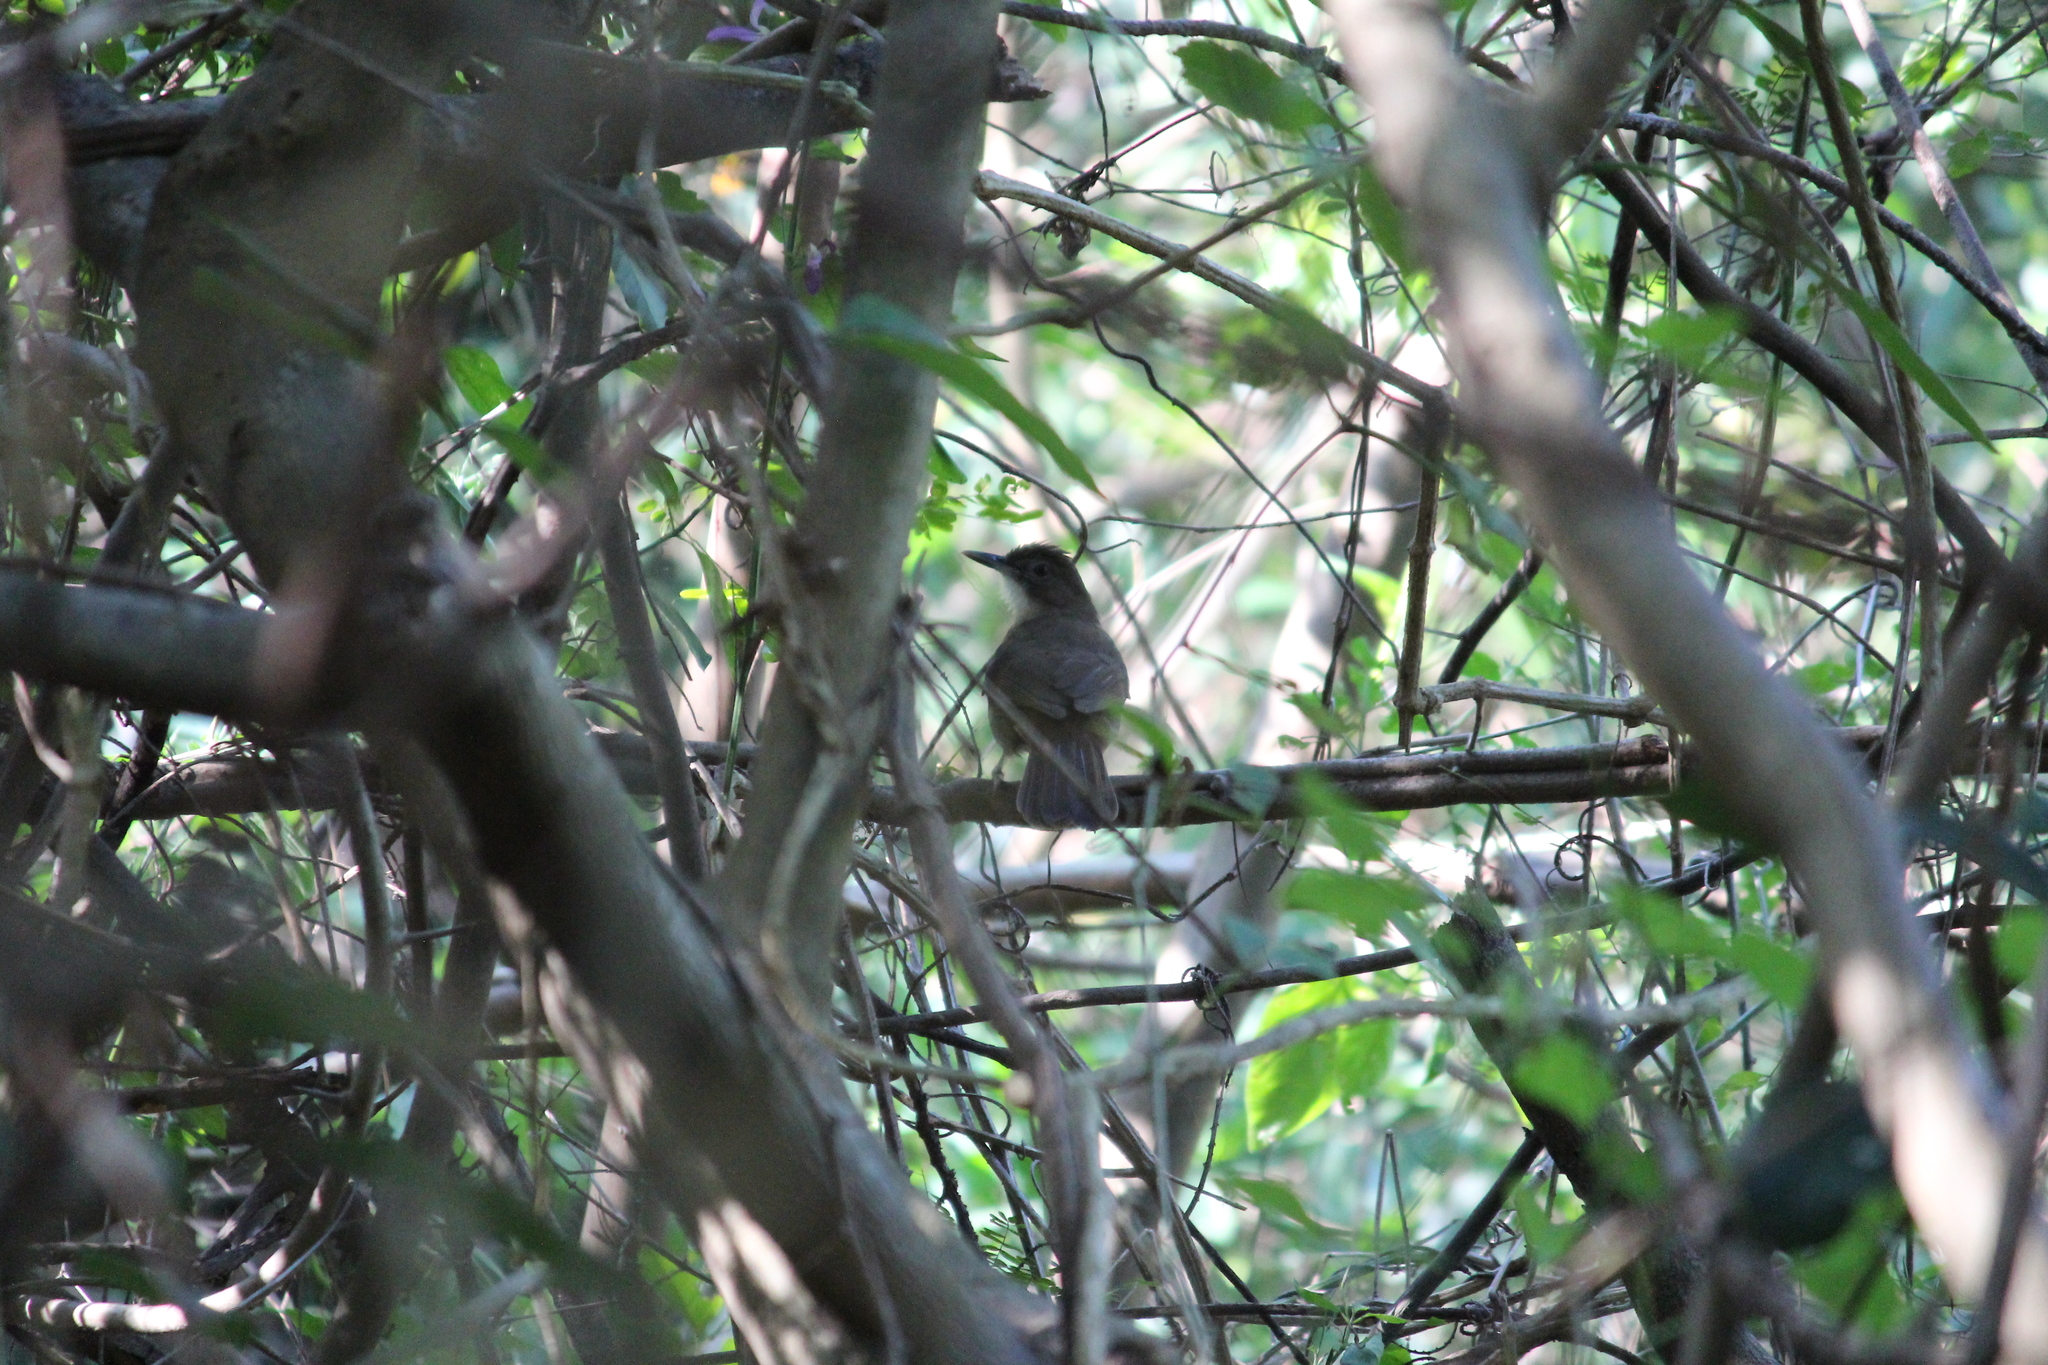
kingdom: Animalia
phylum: Chordata
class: Aves
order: Passeriformes
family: Pycnonotidae
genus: Phyllastrephus
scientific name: Phyllastrephus terrestris
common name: Terrestrial brownbul
